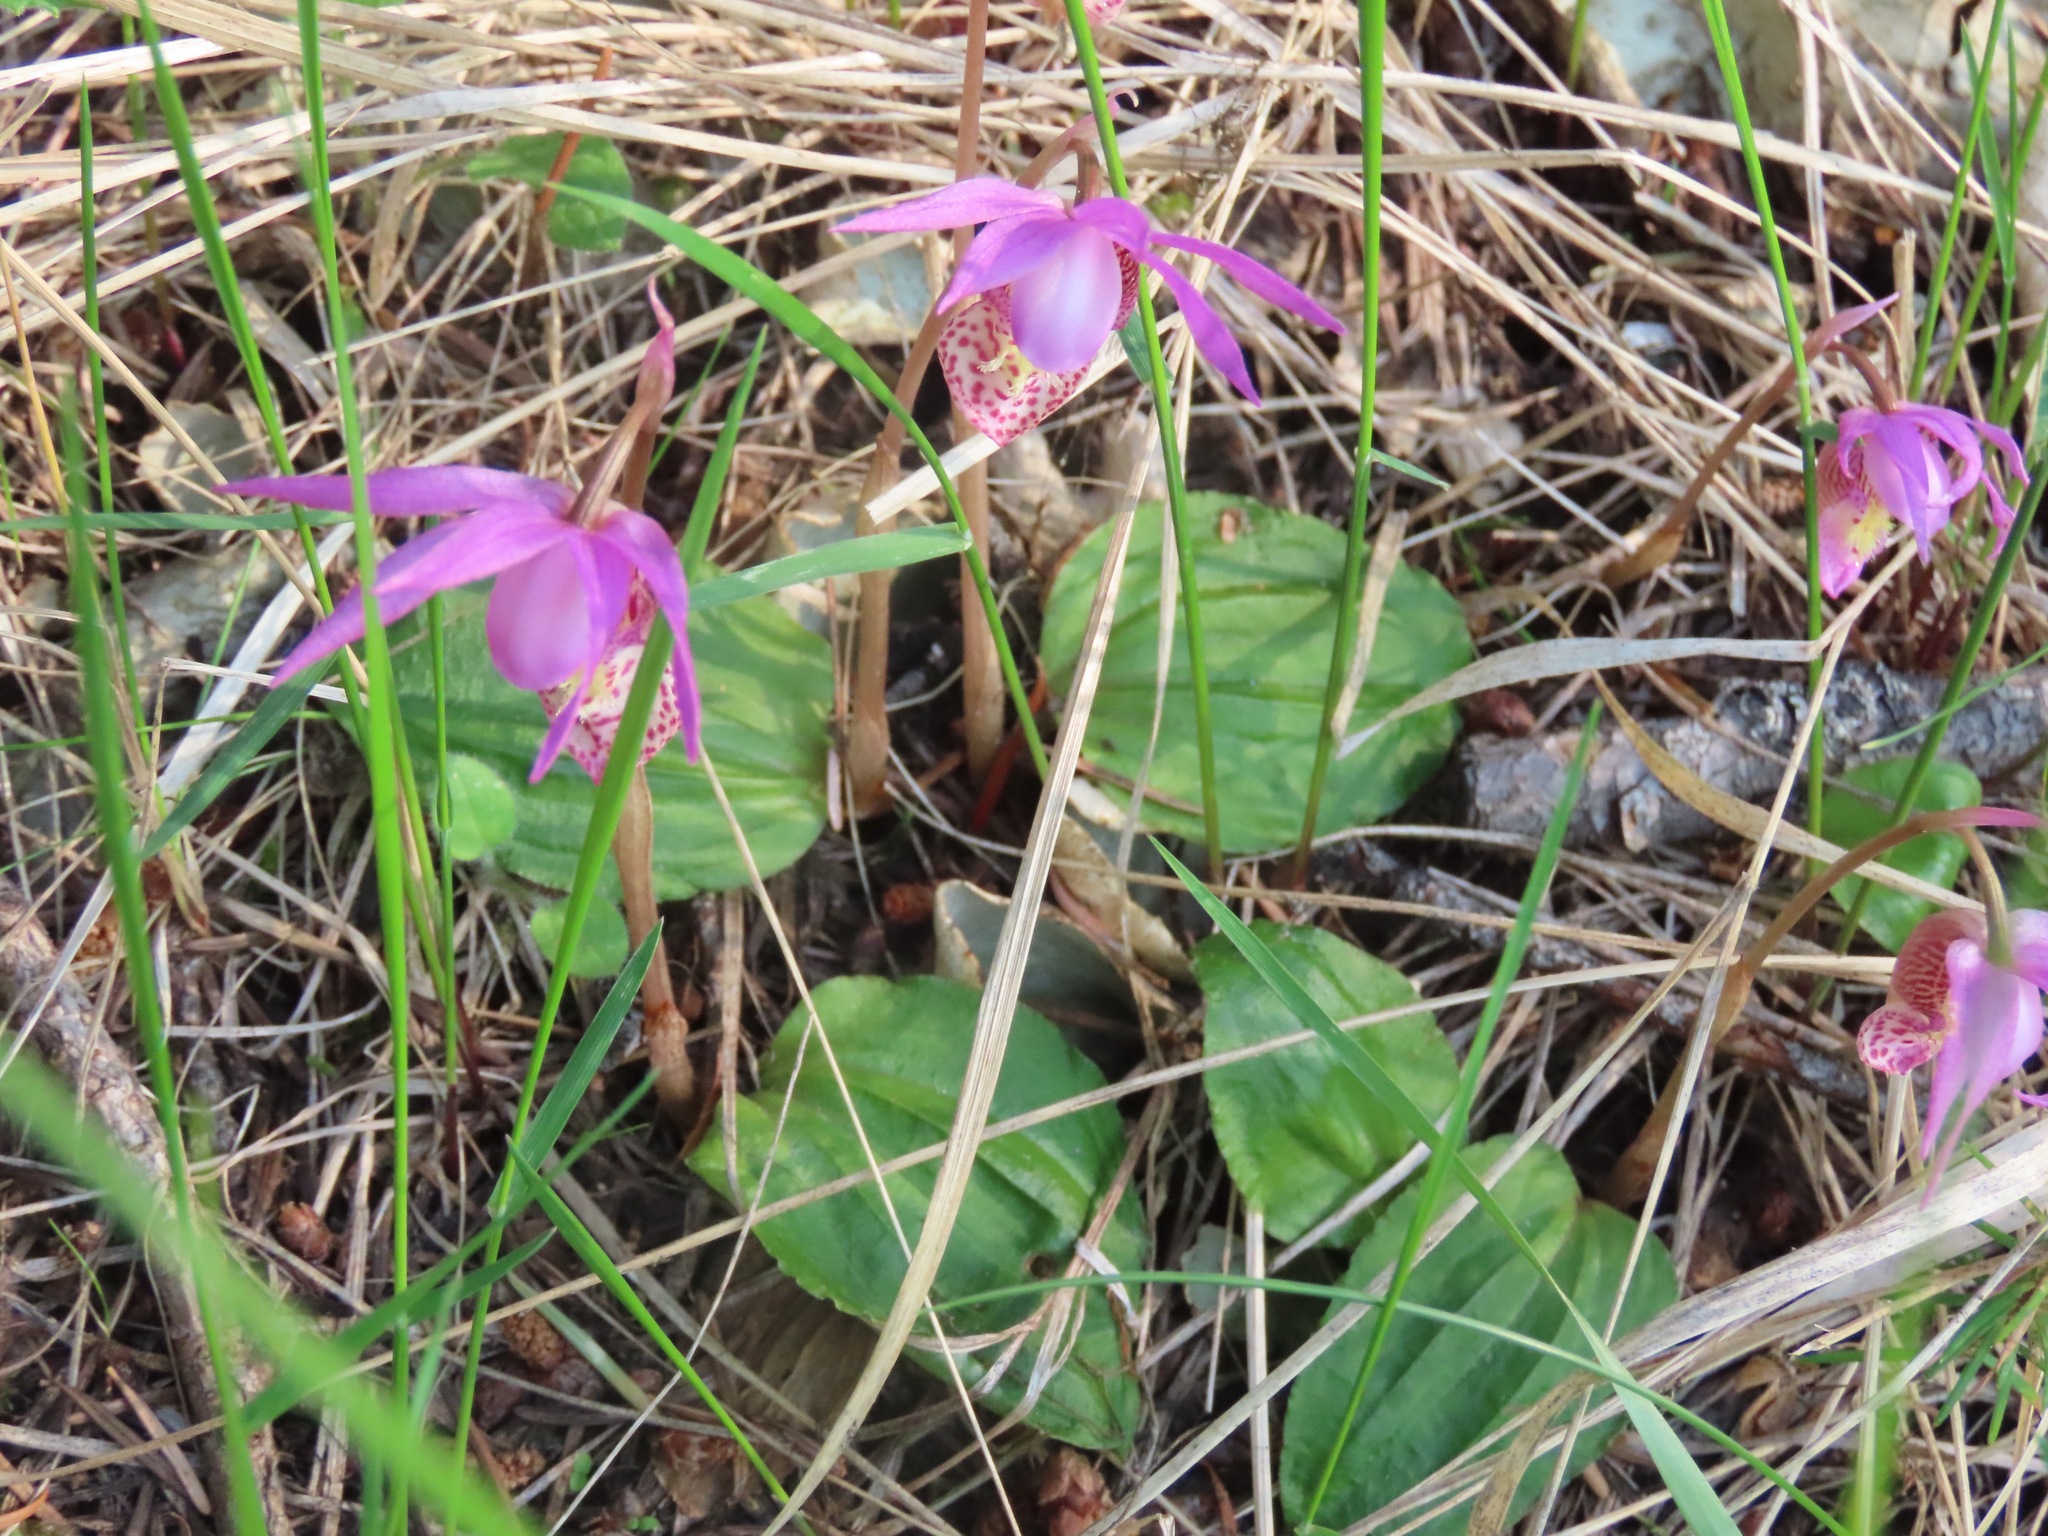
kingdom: Plantae
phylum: Tracheophyta
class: Liliopsida
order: Asparagales
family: Orchidaceae
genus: Calypso
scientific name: Calypso bulbosa
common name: Calypso
